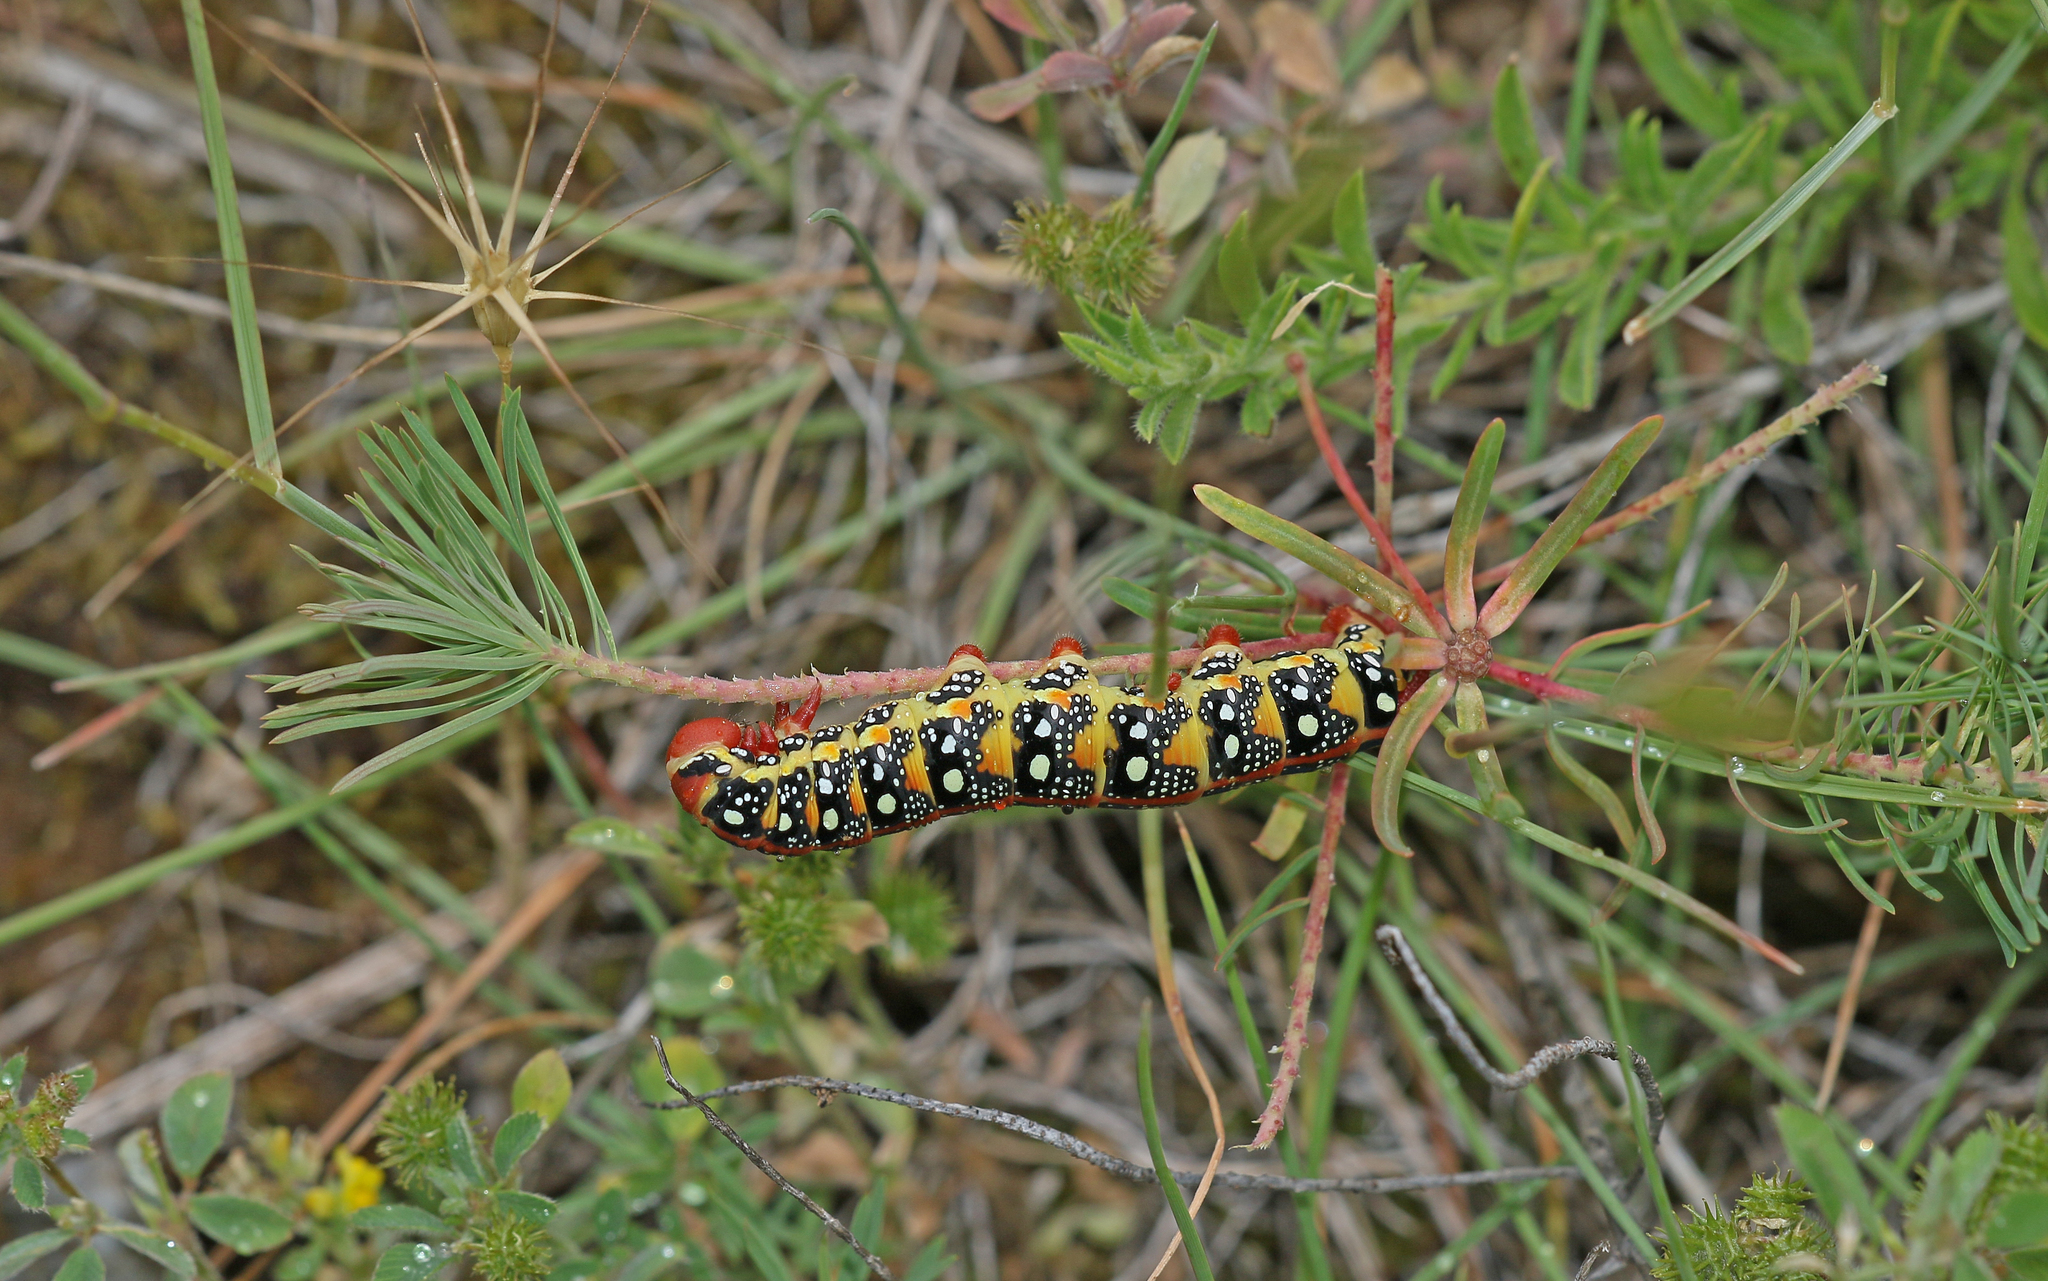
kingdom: Animalia
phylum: Arthropoda
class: Insecta
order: Lepidoptera
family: Sphingidae
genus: Hyles
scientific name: Hyles euphorbiae
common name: Spurge hawk-moth
